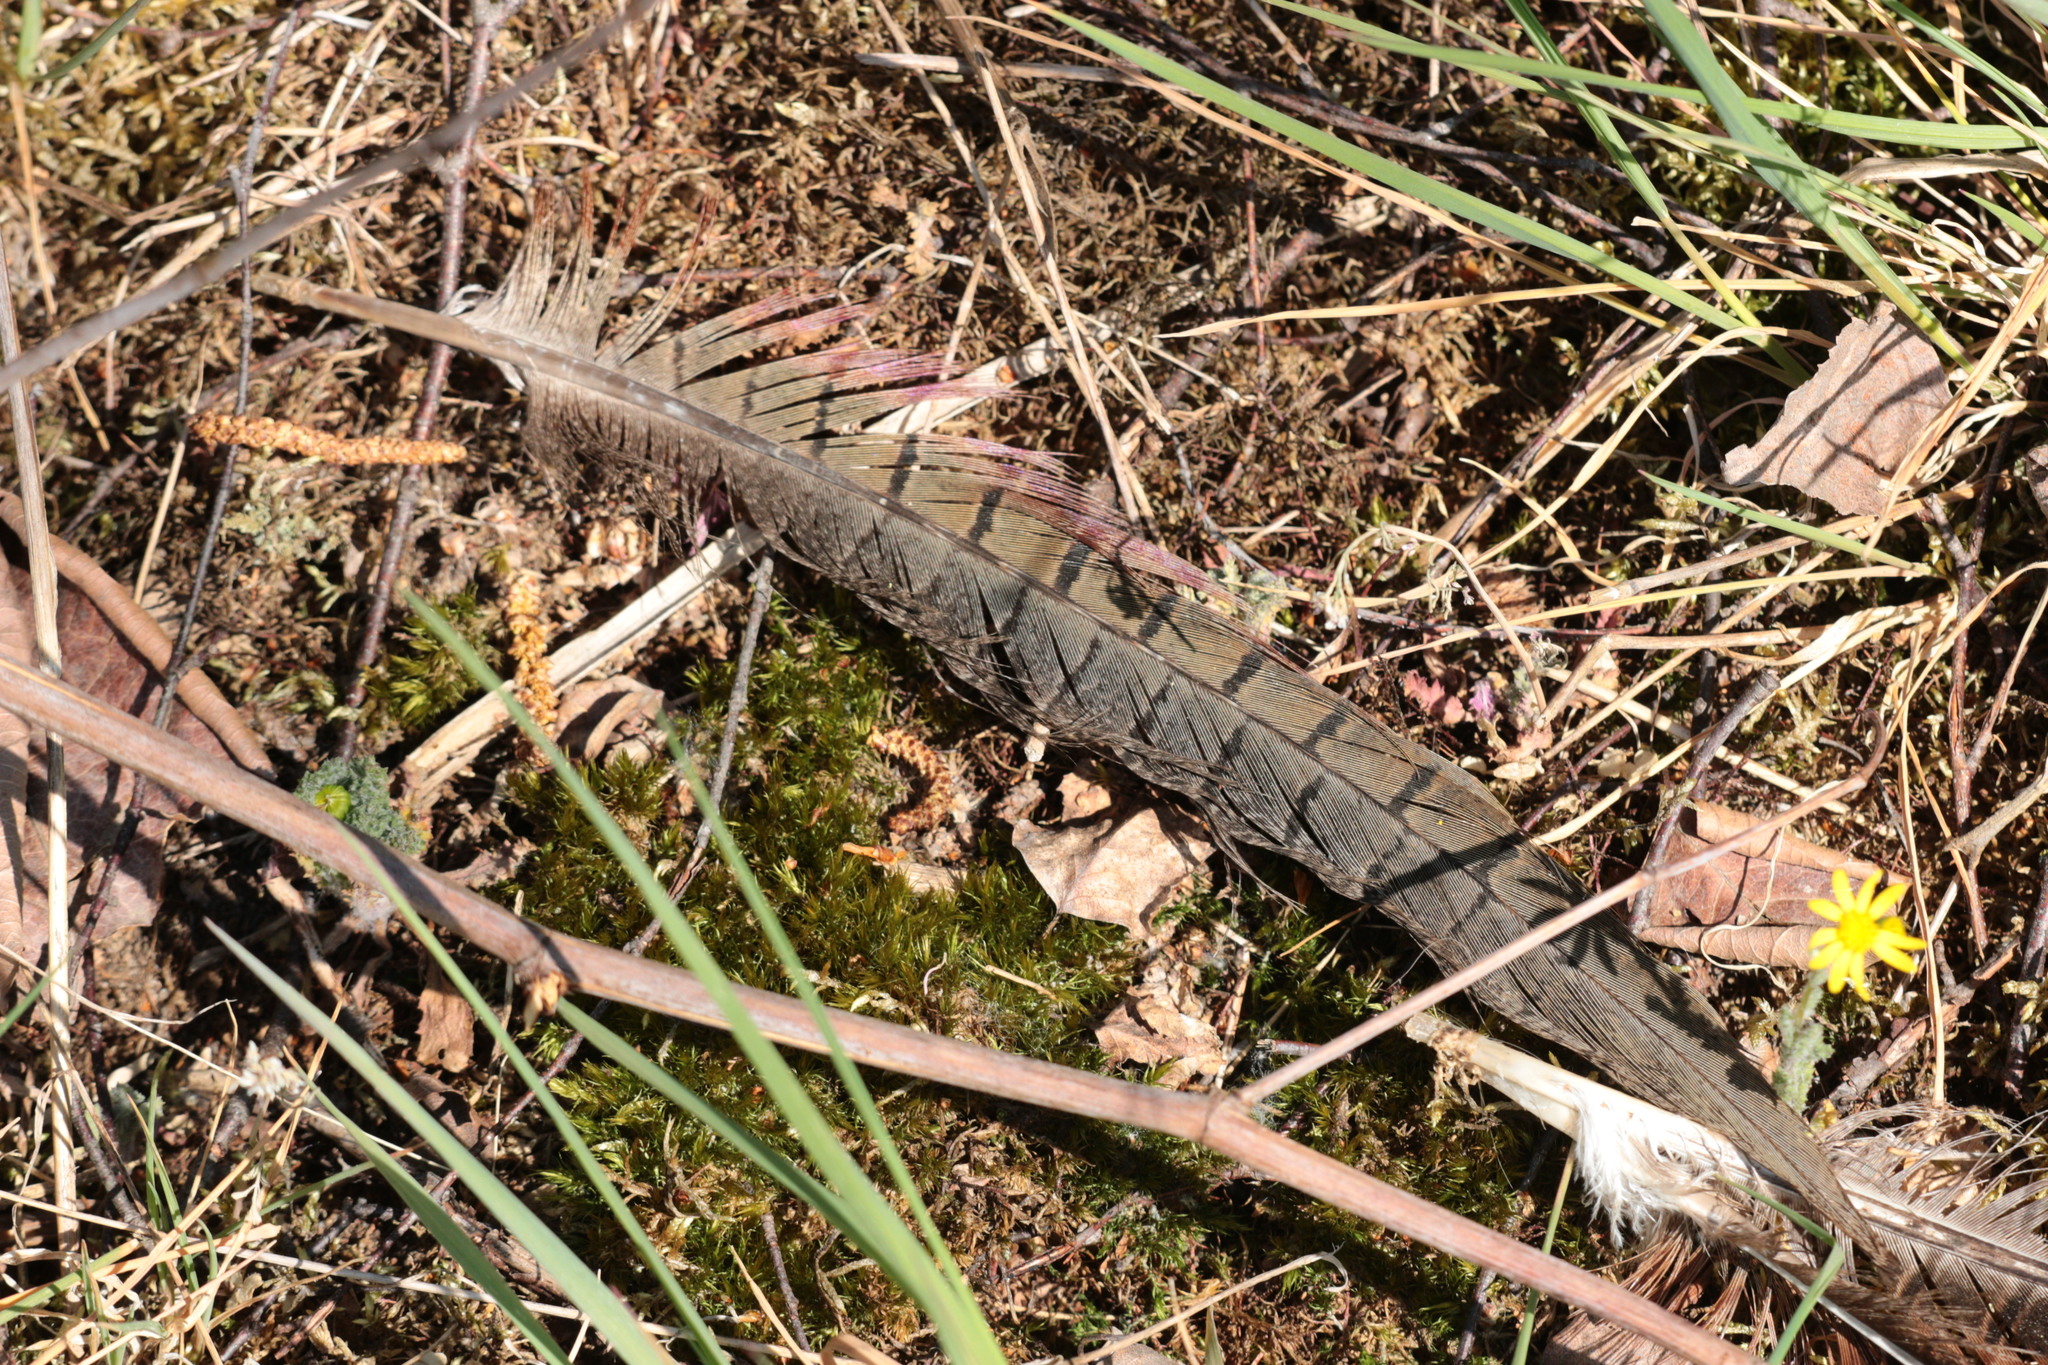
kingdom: Animalia
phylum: Chordata
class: Aves
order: Galliformes
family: Phasianidae
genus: Phasianus
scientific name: Phasianus colchicus
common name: Common pheasant
